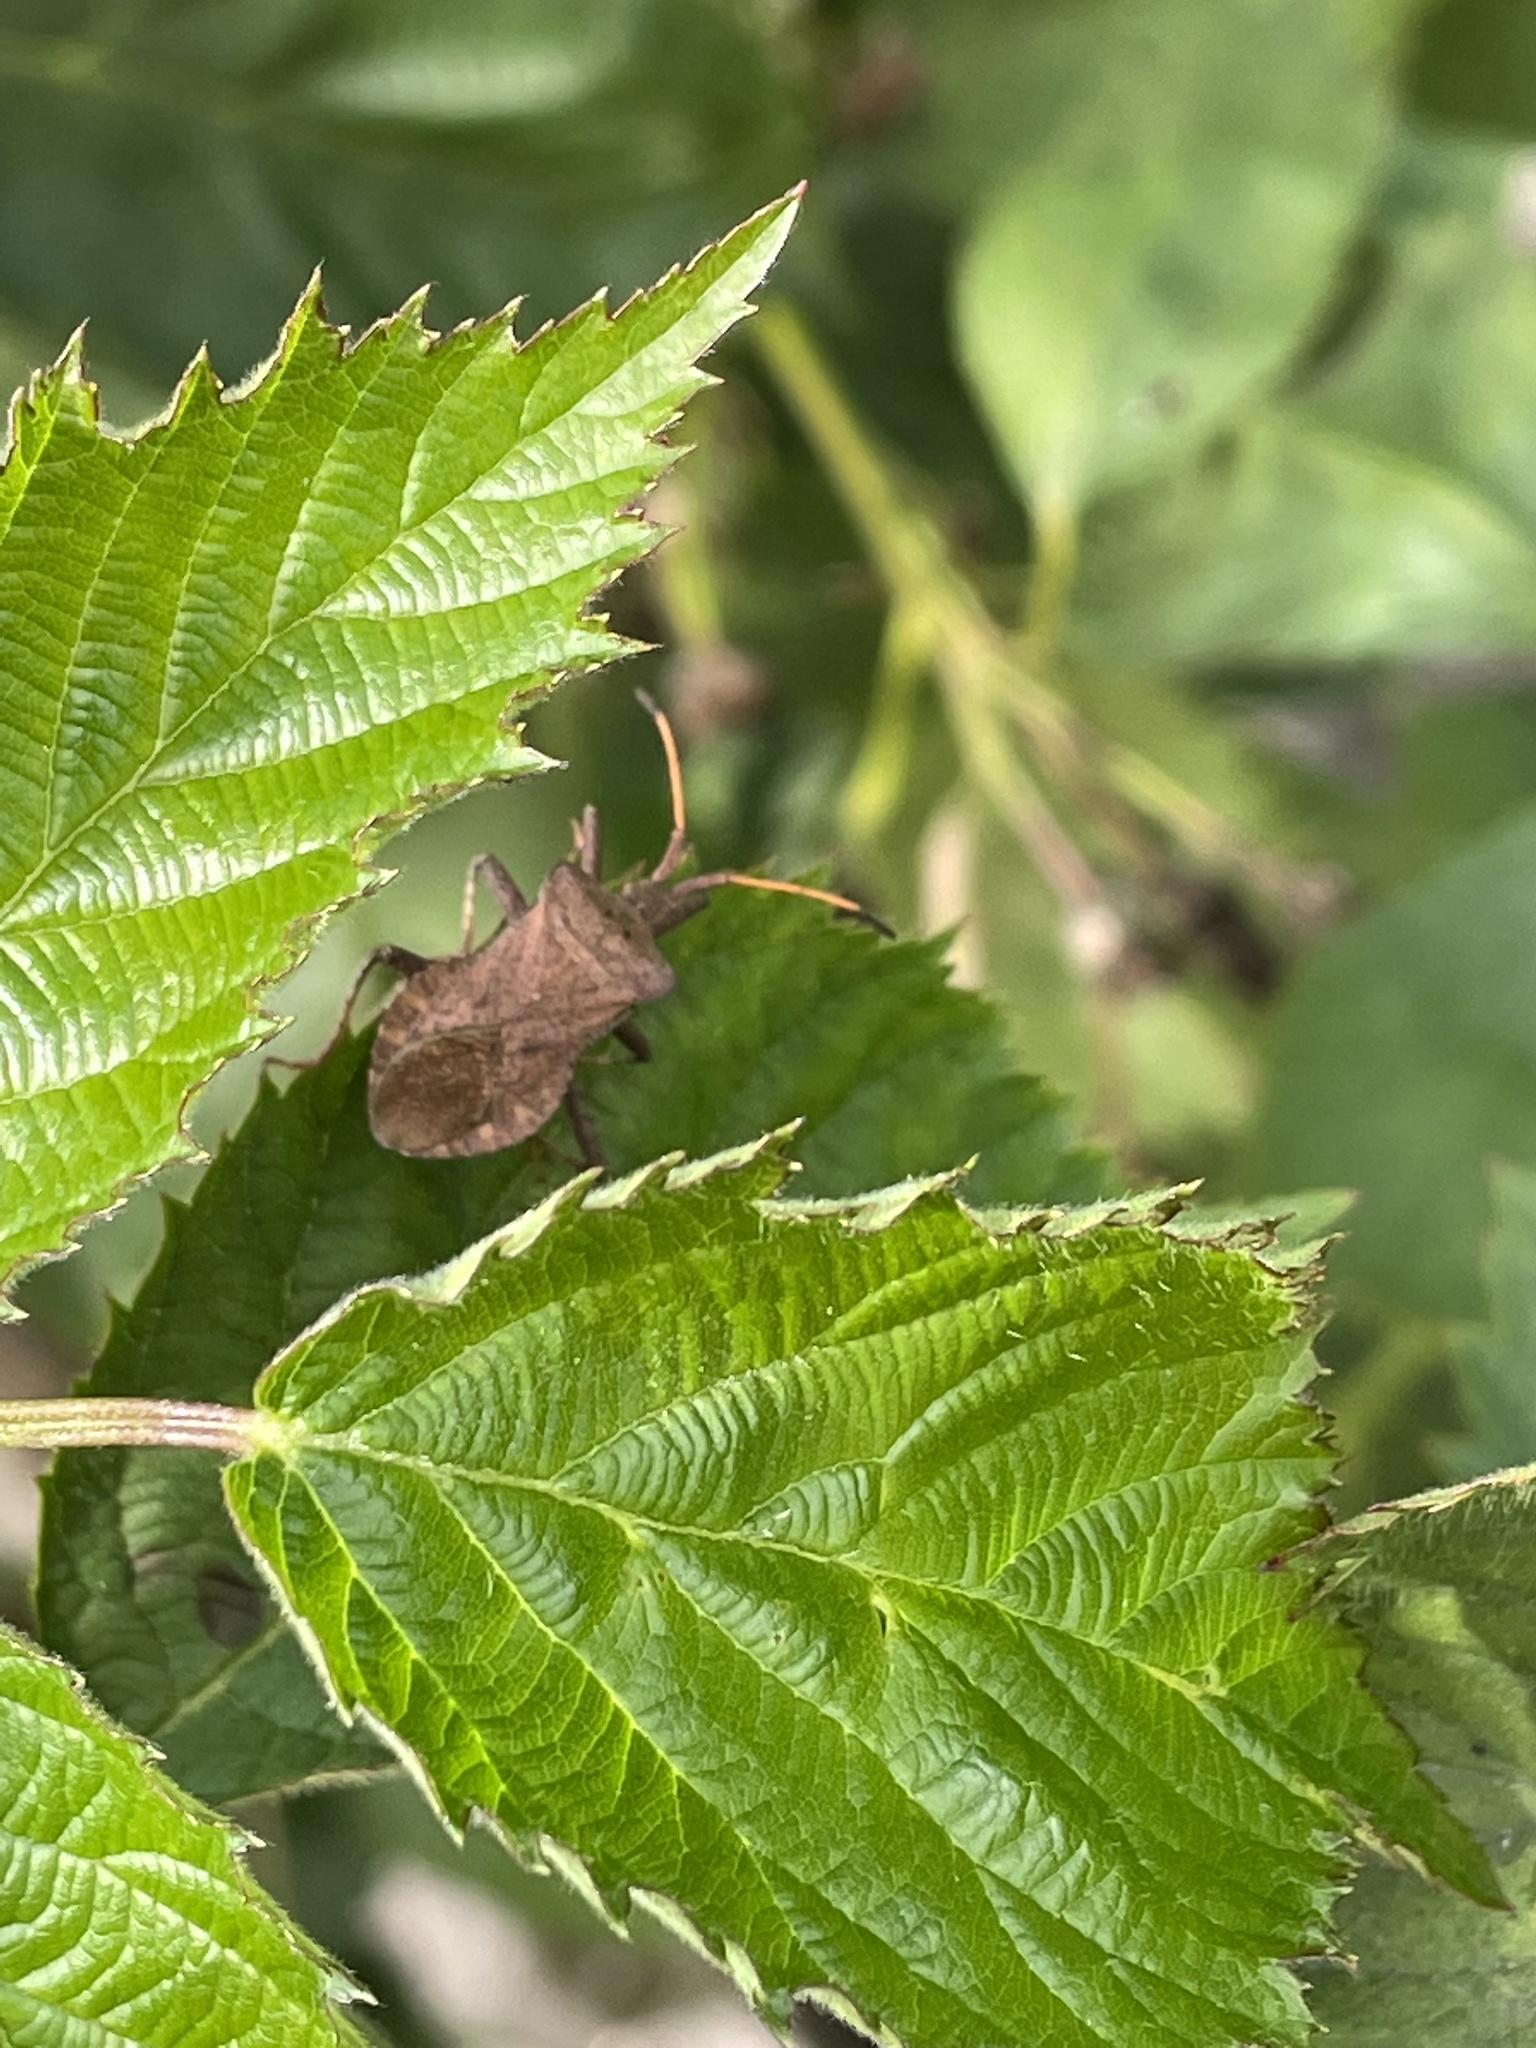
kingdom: Animalia
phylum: Arthropoda
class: Insecta
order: Hemiptera
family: Coreidae
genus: Coreus
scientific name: Coreus marginatus
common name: Dock bug
